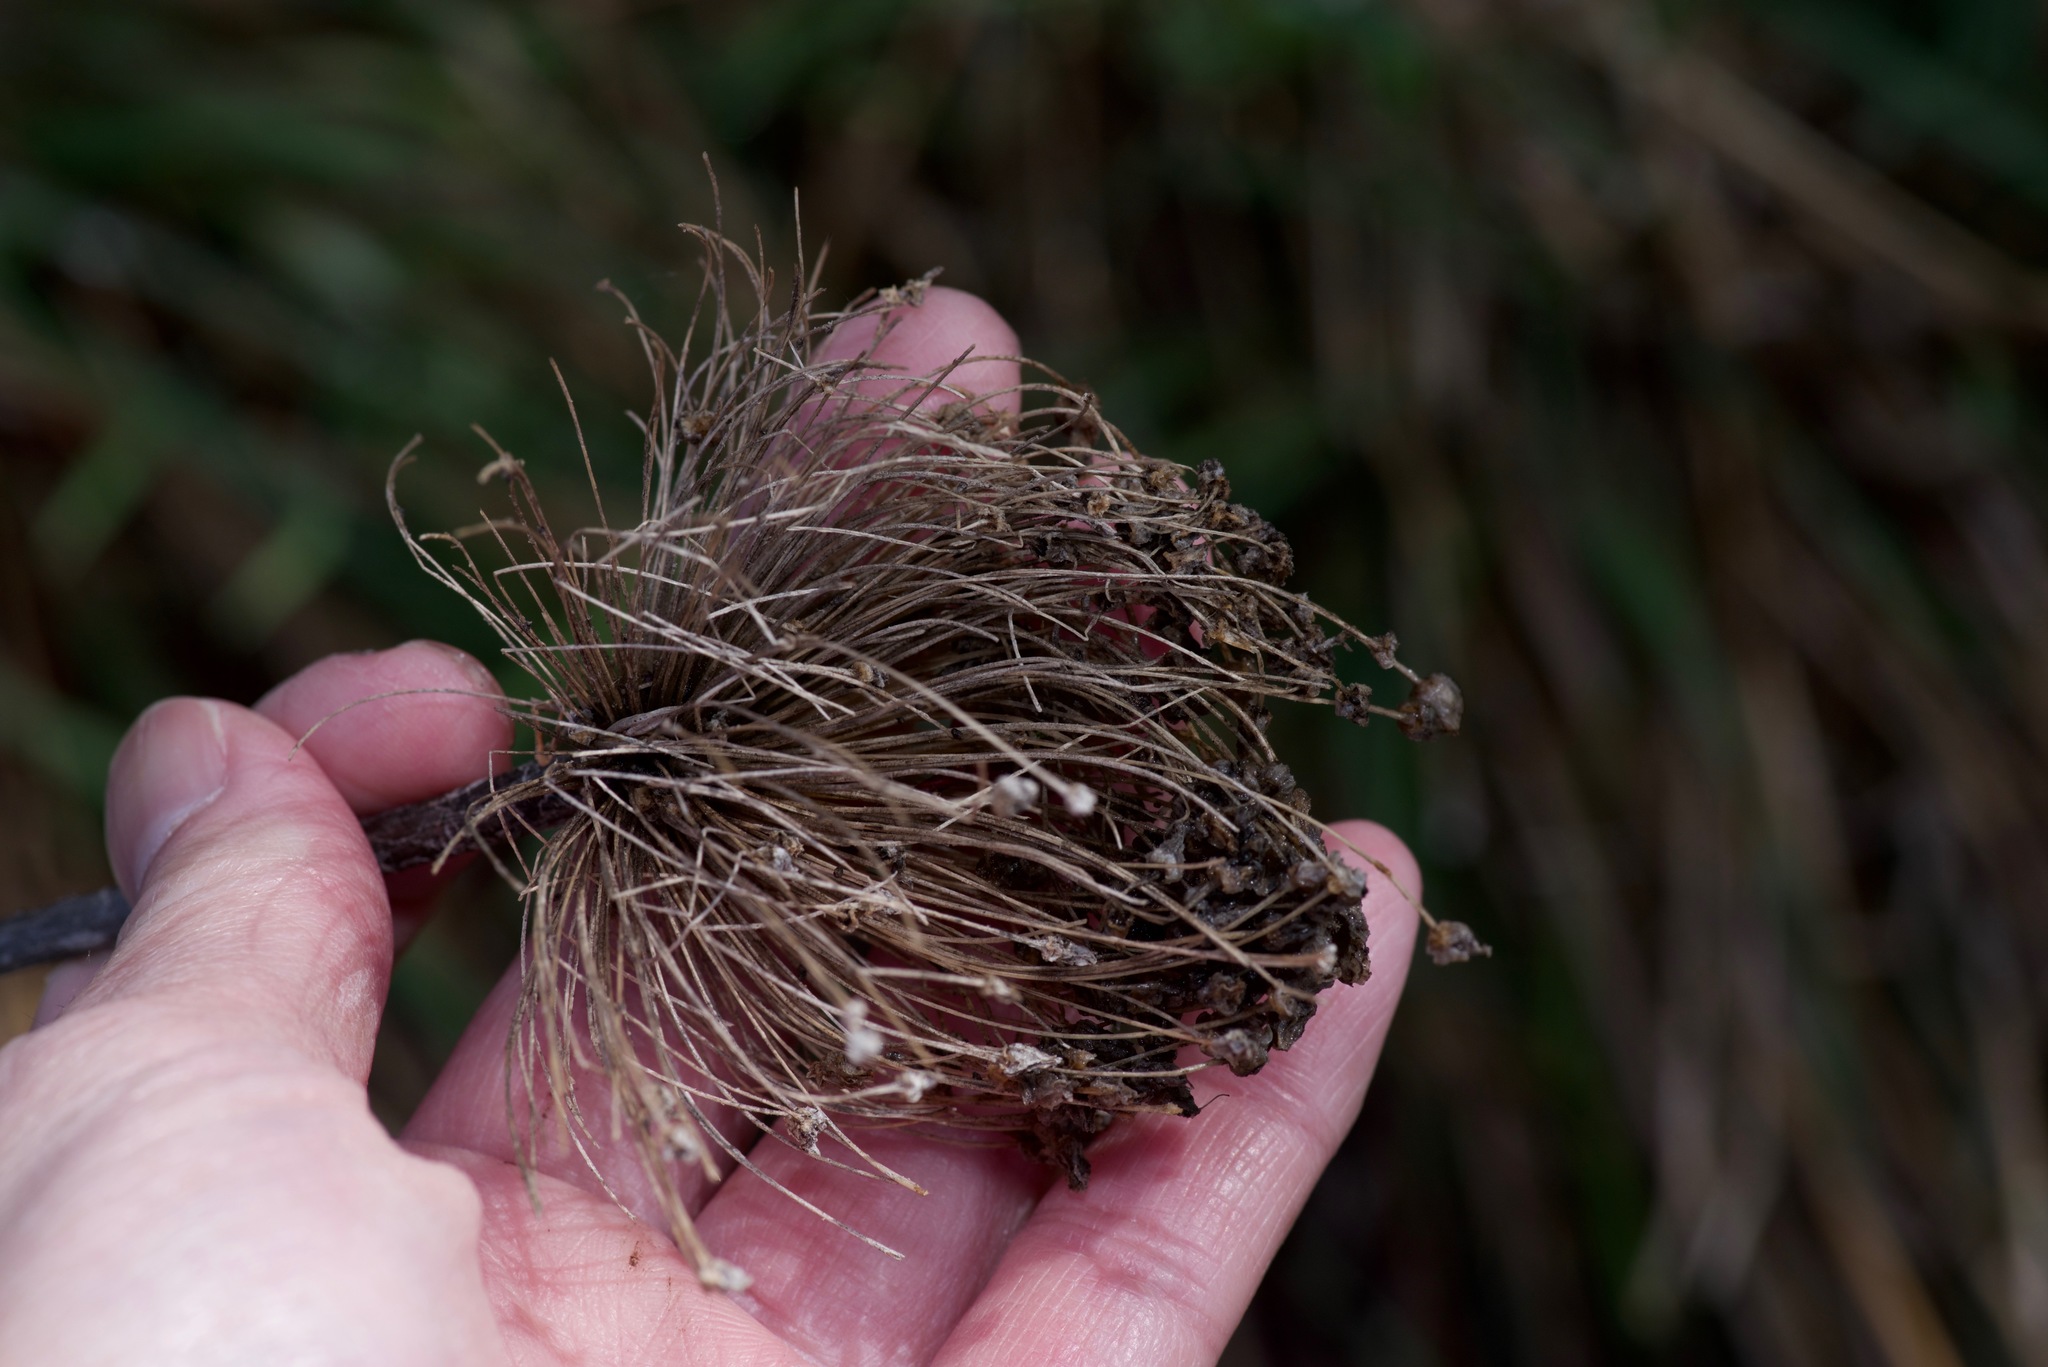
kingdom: Plantae
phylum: Tracheophyta
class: Liliopsida
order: Asparagales
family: Amaryllidaceae
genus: Allium
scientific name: Allium ampeloprasum
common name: Wild leek
